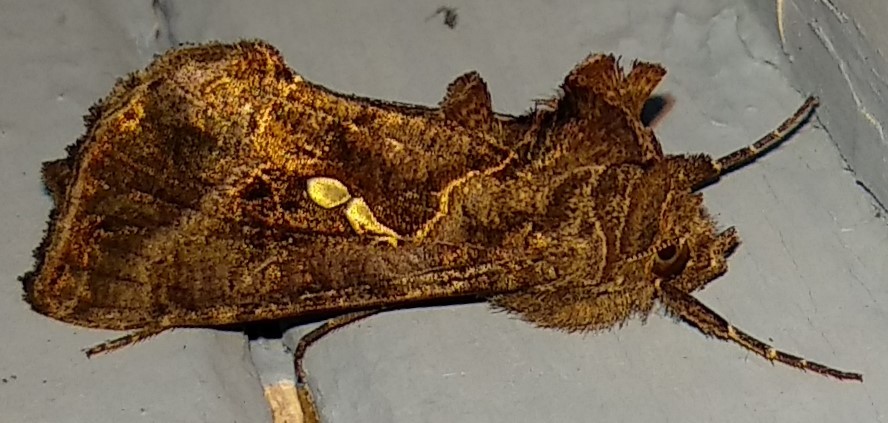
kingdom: Animalia
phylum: Arthropoda
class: Insecta
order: Lepidoptera
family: Noctuidae
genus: Autographa
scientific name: Autographa precationis
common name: Common looper moth
